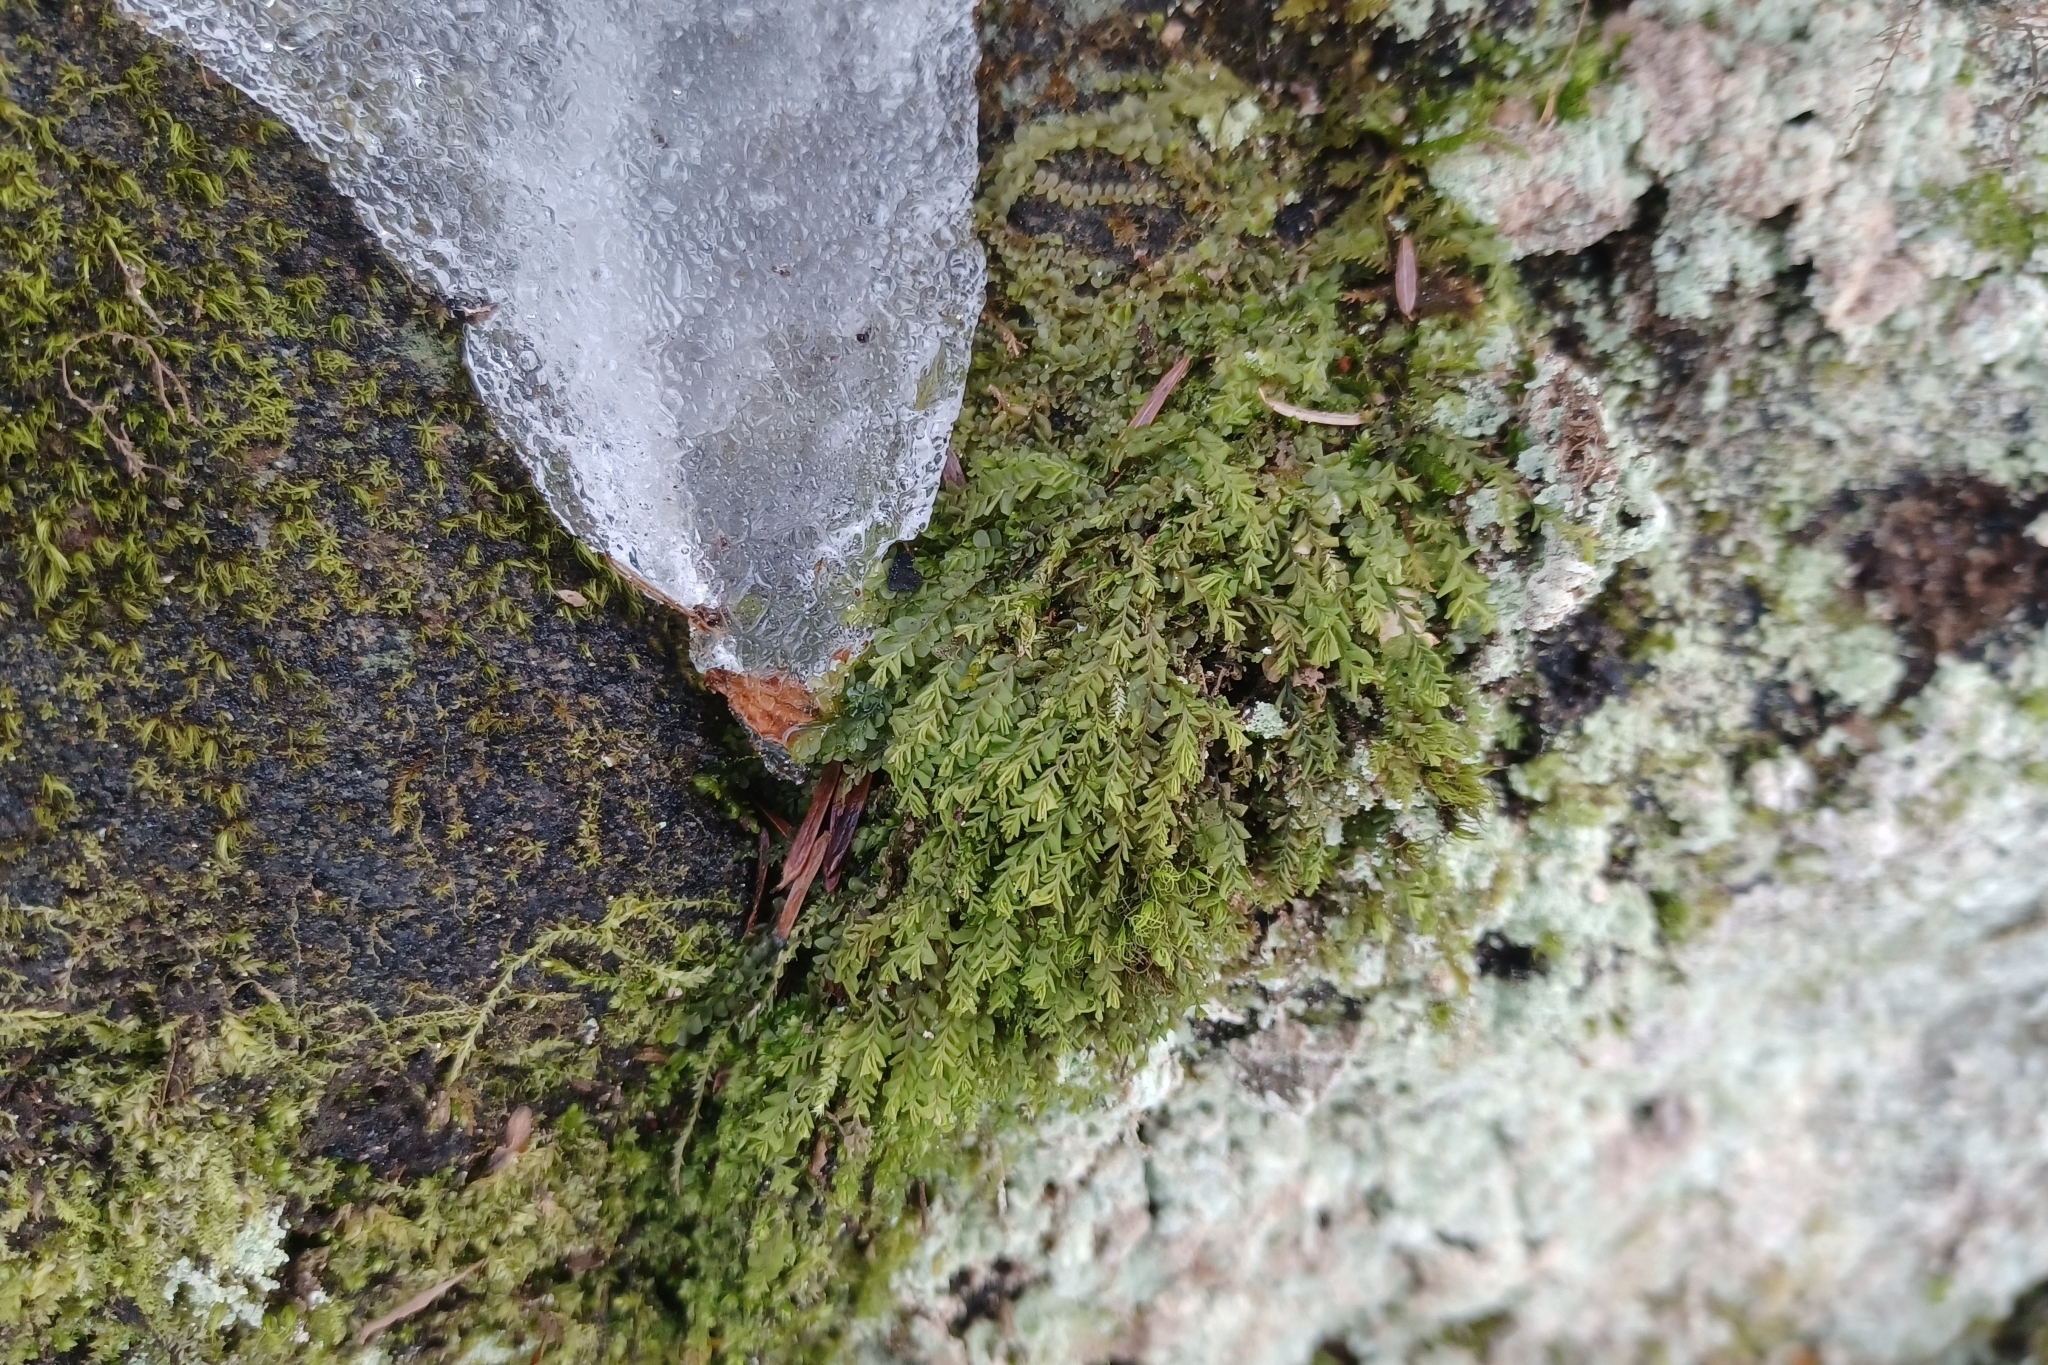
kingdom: Plantae
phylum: Marchantiophyta
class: Jungermanniopsida
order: Jungermanniales
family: Plagiochilaceae
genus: Plagiochila
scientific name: Plagiochila porelloides
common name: Lesser featherwort
